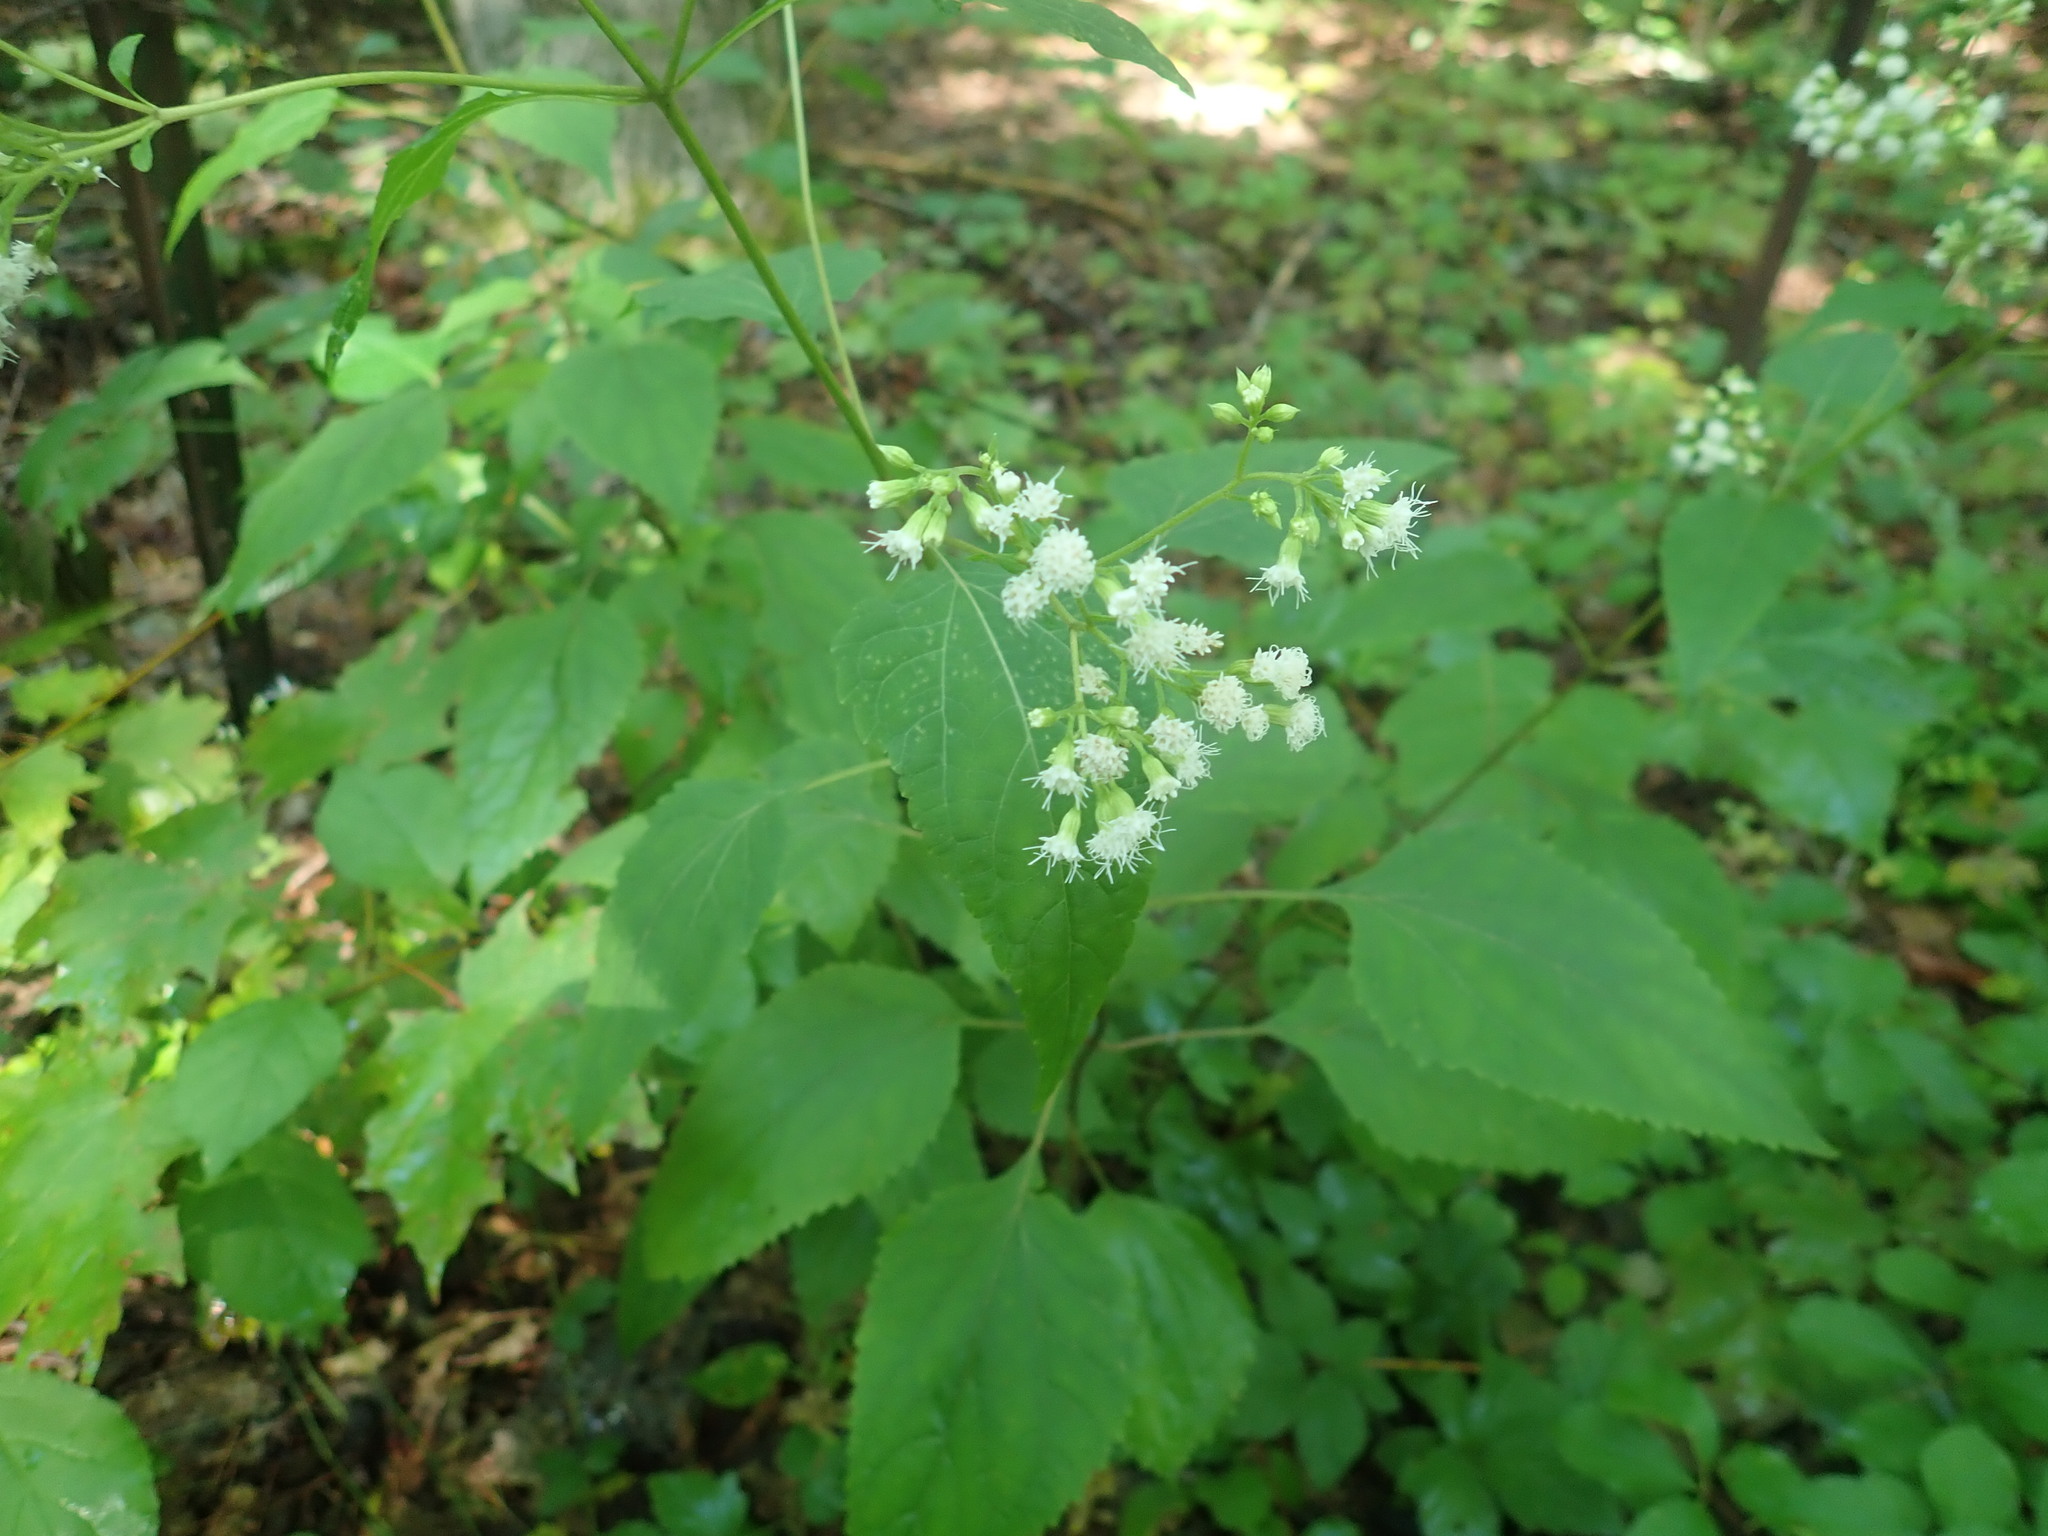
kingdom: Plantae
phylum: Tracheophyta
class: Magnoliopsida
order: Asterales
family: Asteraceae
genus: Ageratina
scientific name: Ageratina altissima
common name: White snakeroot
